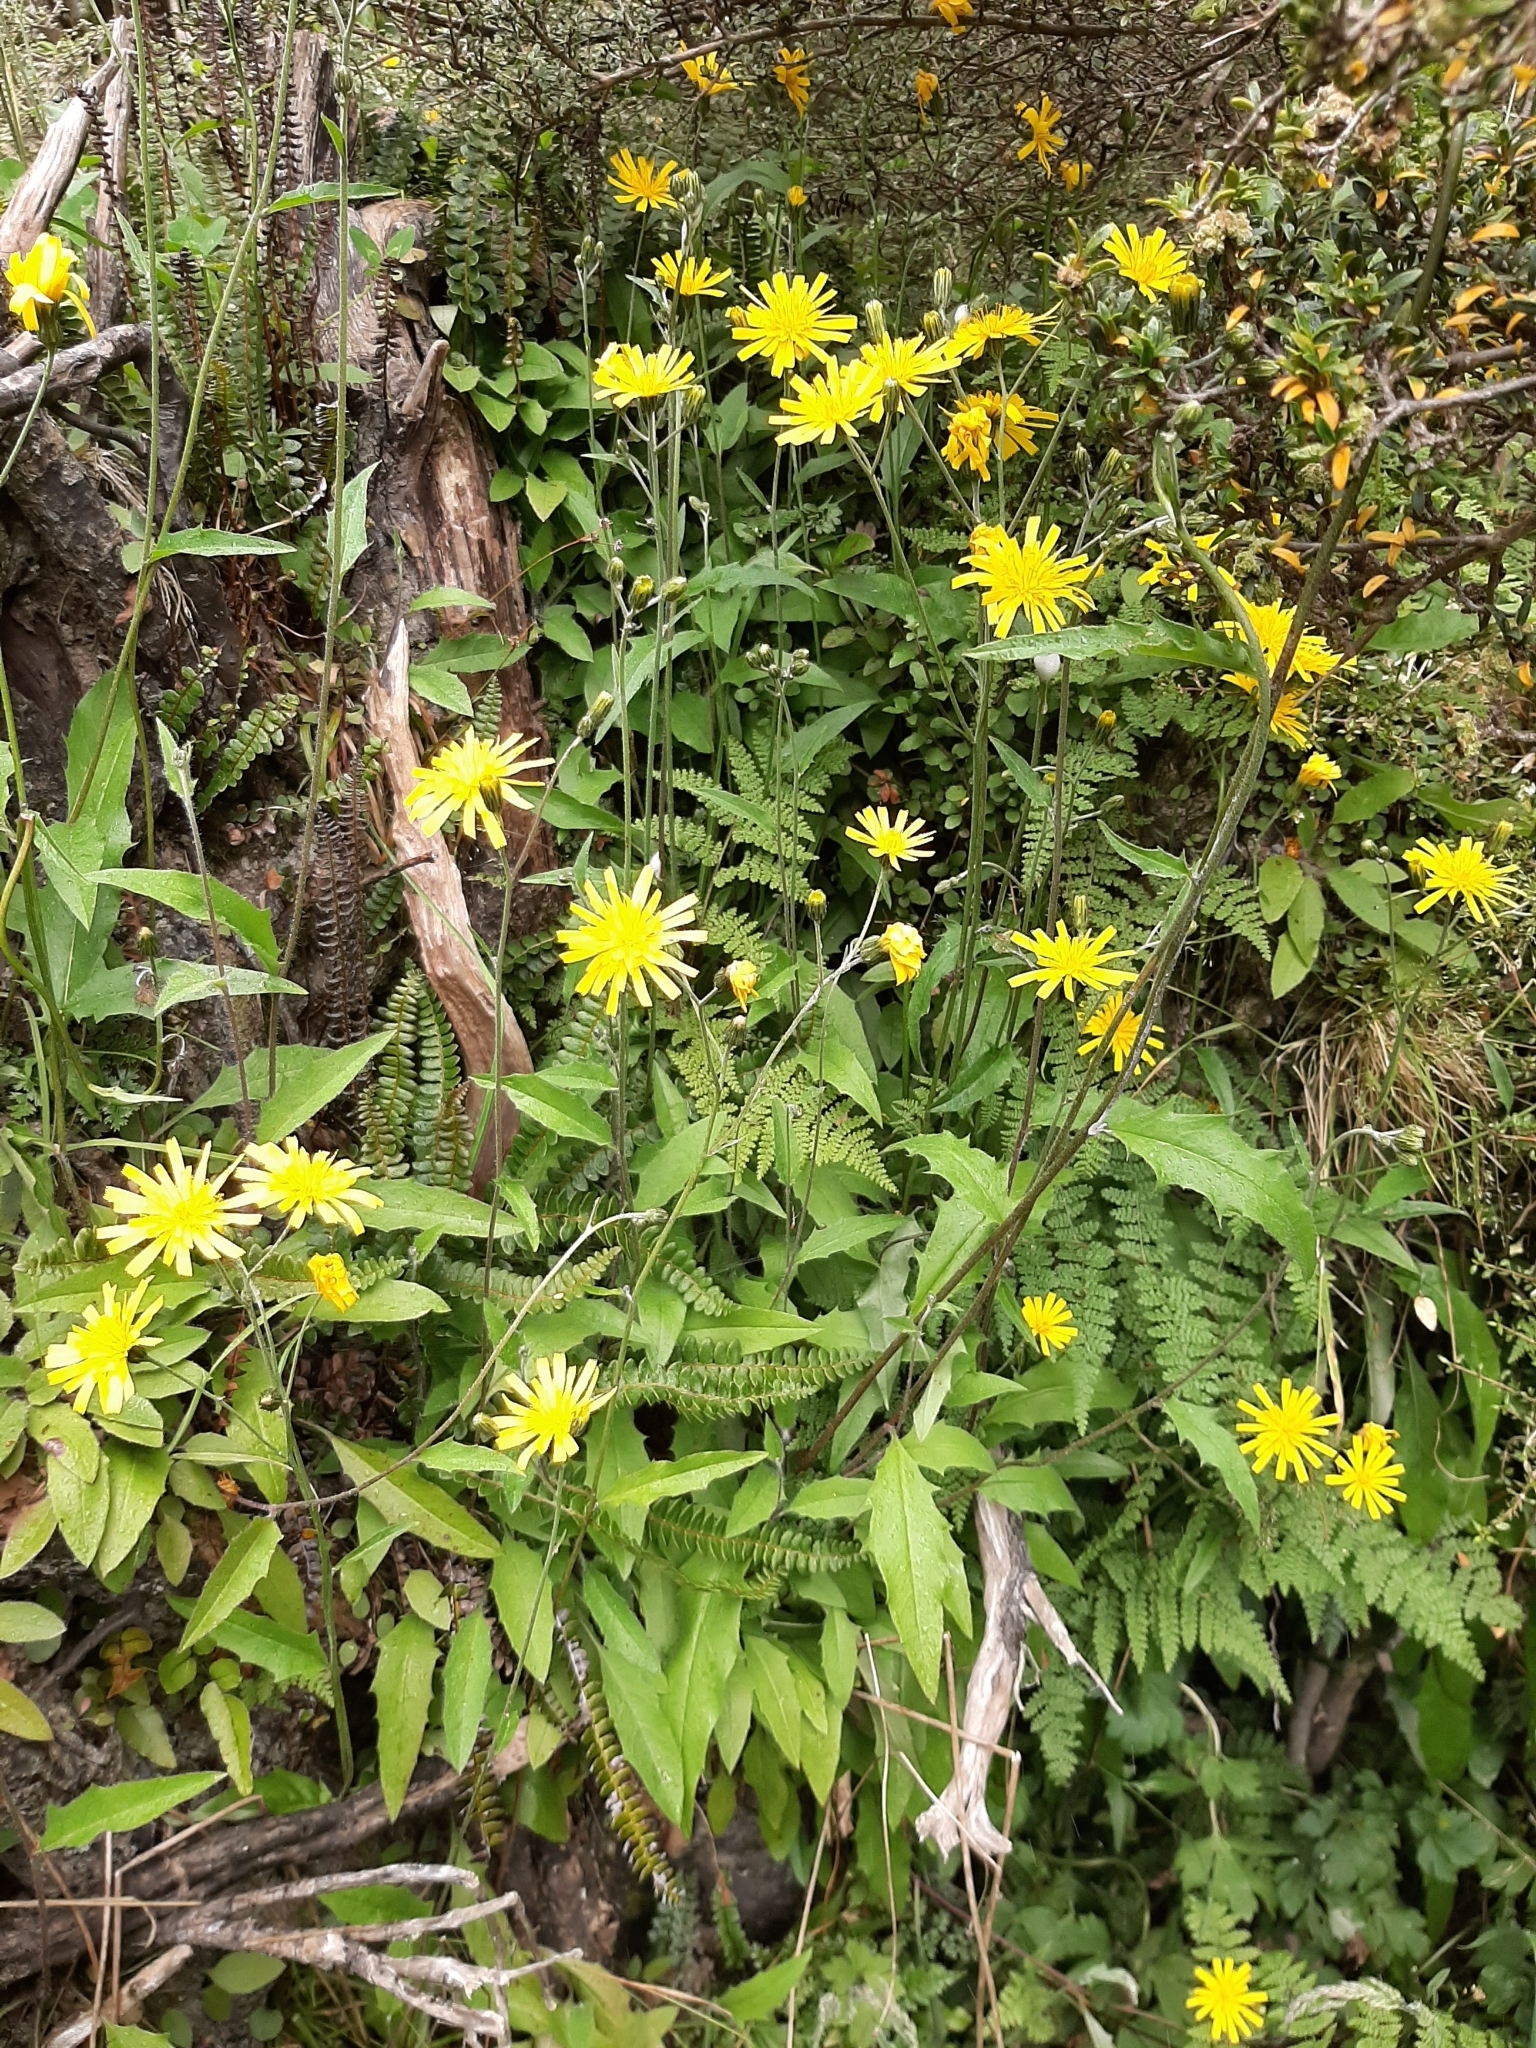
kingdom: Plantae
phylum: Tracheophyta
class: Magnoliopsida
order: Asterales
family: Asteraceae
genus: Hieracium
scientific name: Hieracium lepidulum
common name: Irregular-toothed hawkweed
